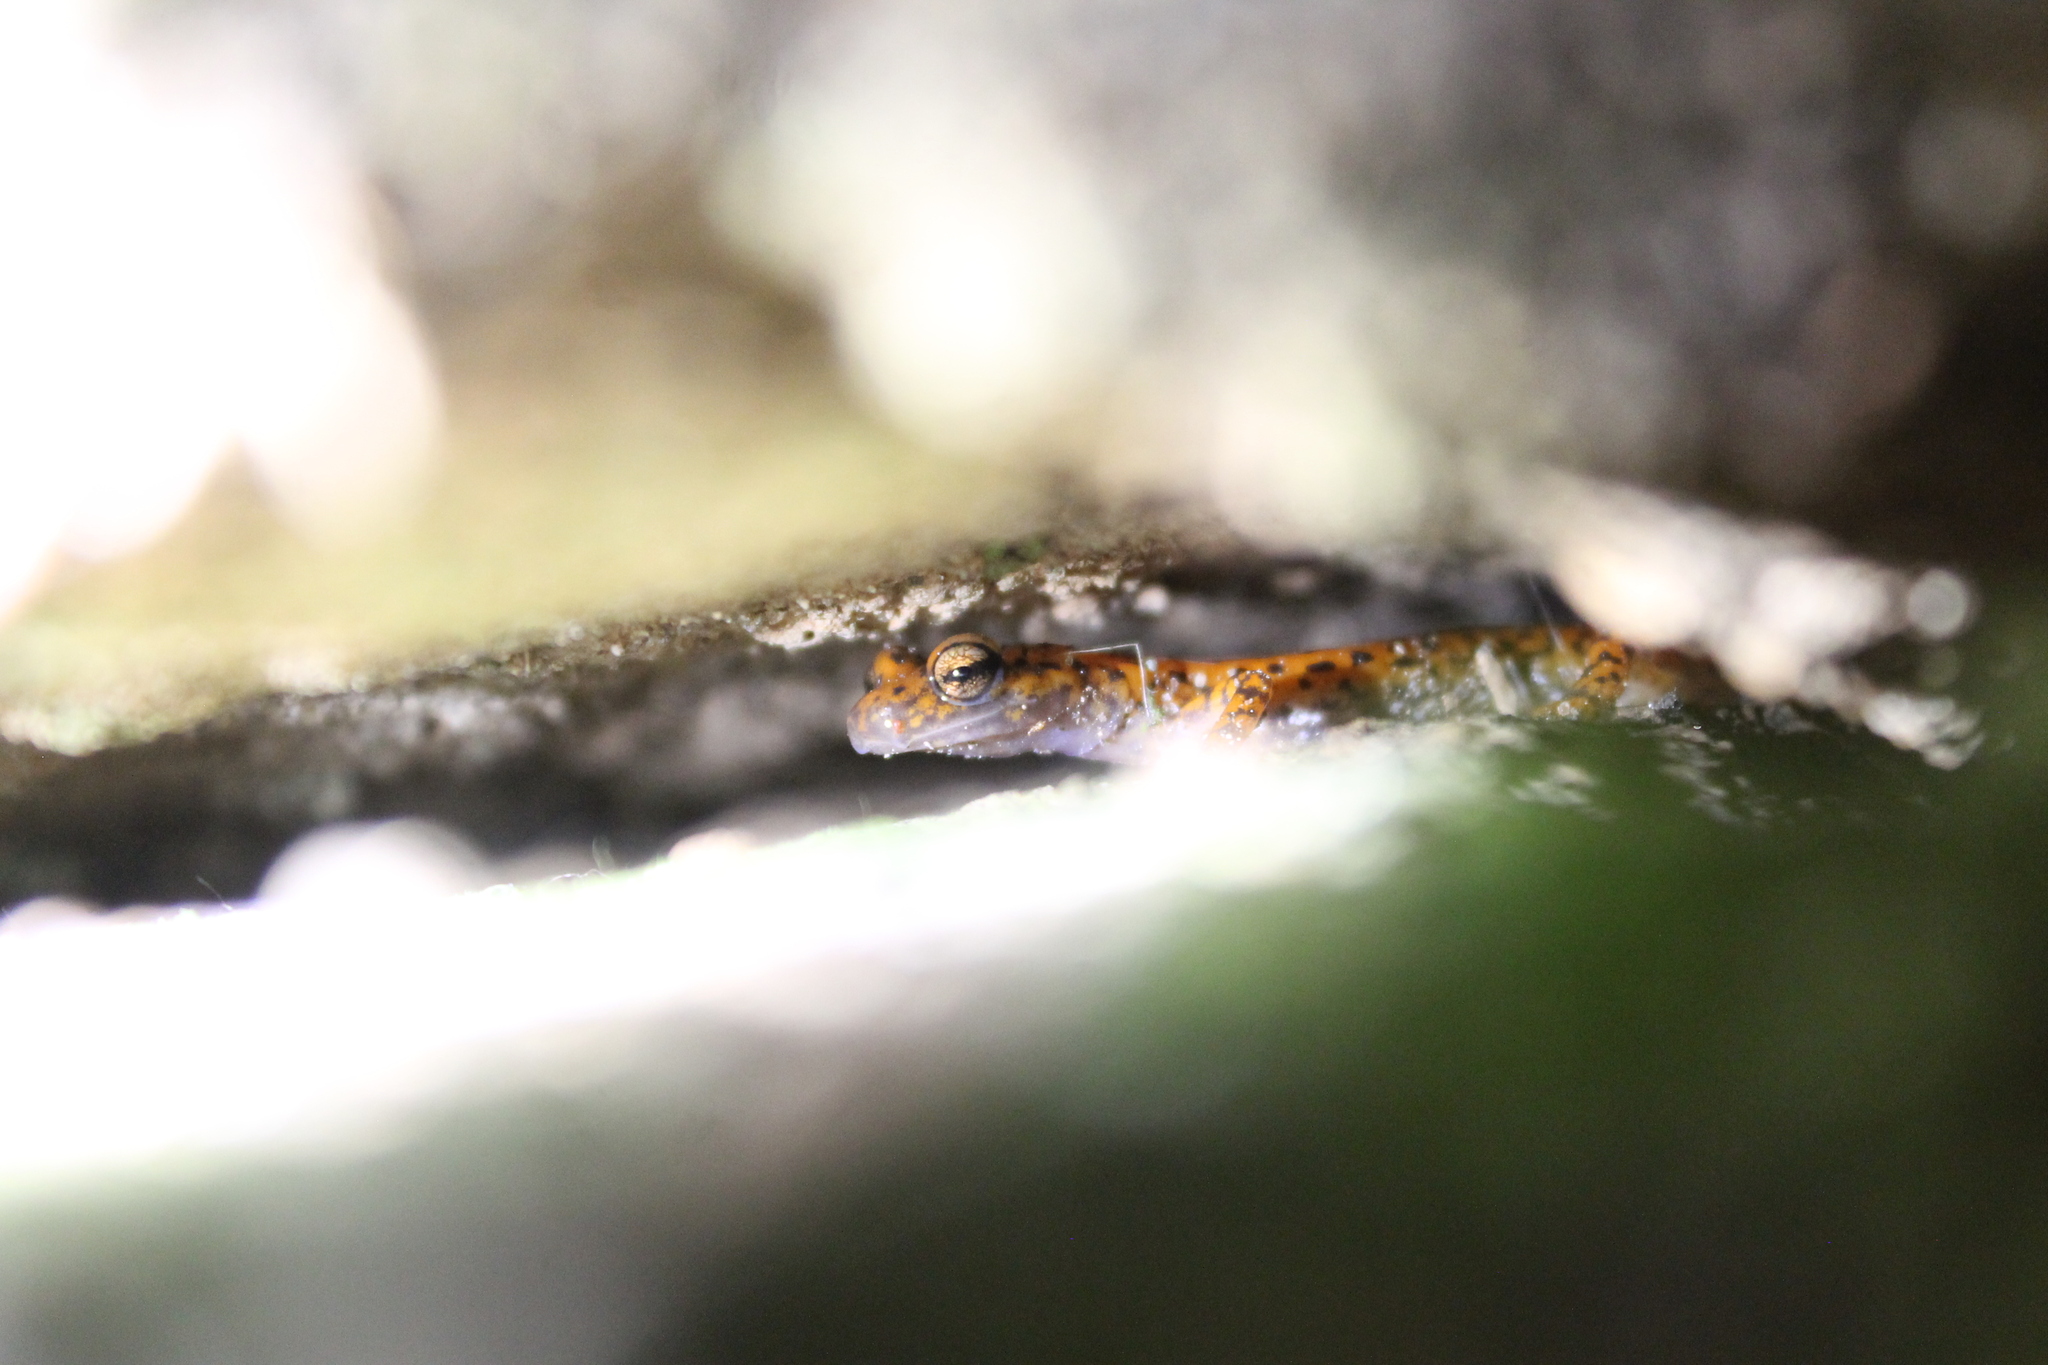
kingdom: Animalia
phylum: Chordata
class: Amphibia
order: Caudata
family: Plethodontidae
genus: Eurycea
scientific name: Eurycea lucifuga
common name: Cave salamander
